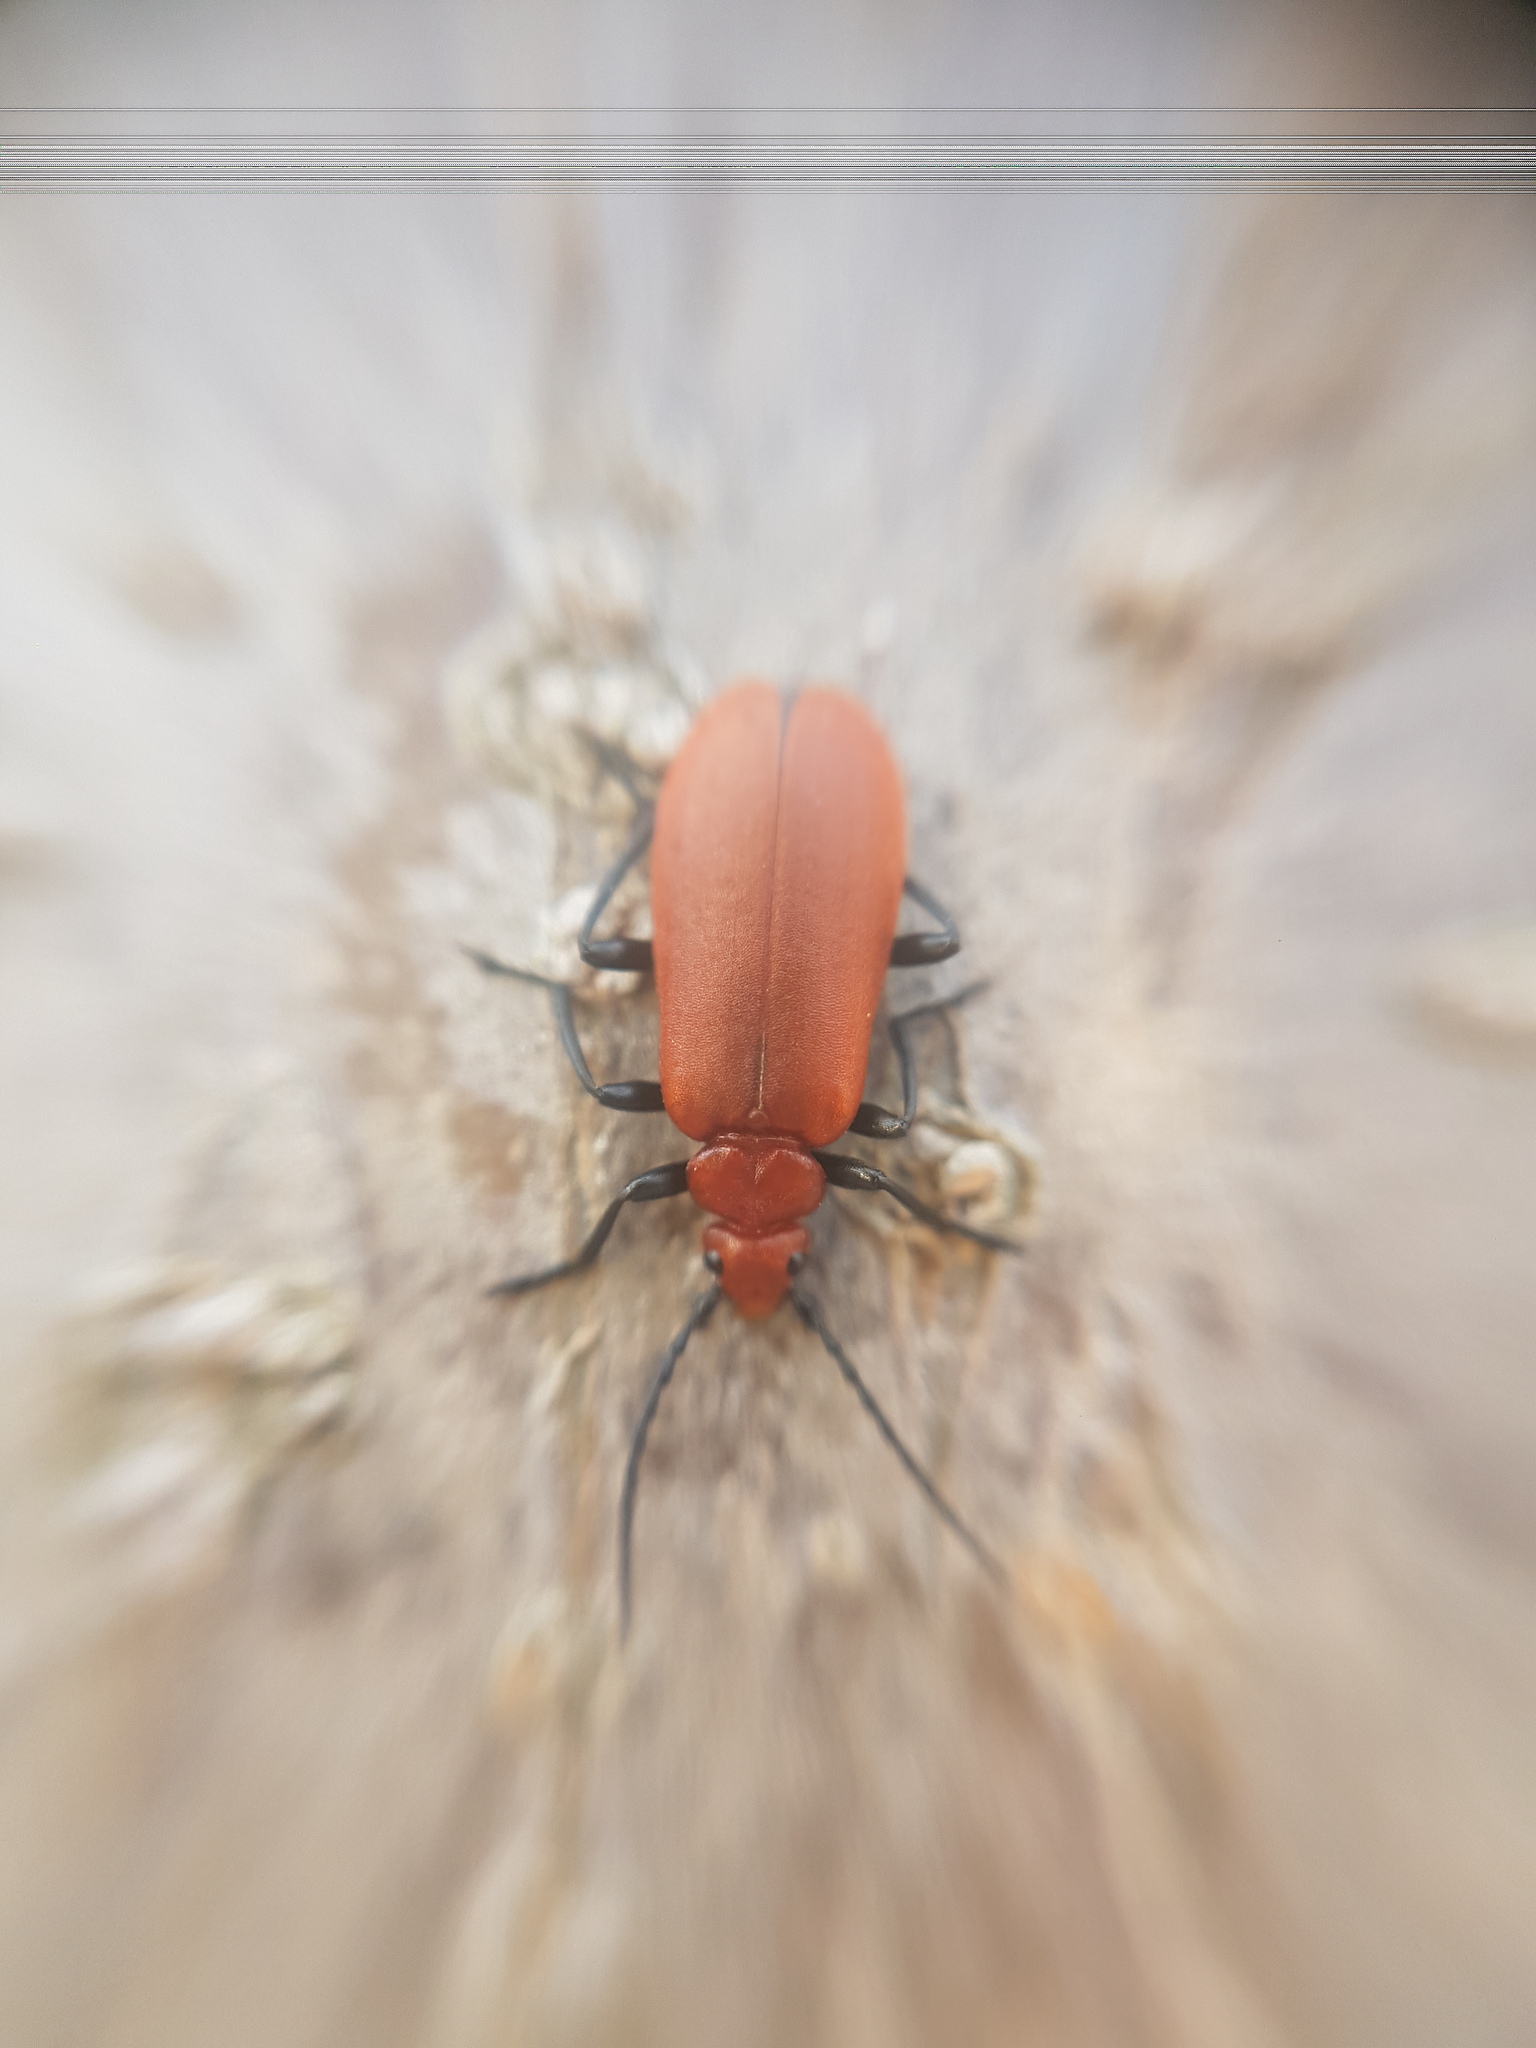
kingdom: Animalia
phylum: Arthropoda
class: Insecta
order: Coleoptera
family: Pyrochroidae
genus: Pyrochroa
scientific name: Pyrochroa serraticornis
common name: Red-headed cardinal beetle
